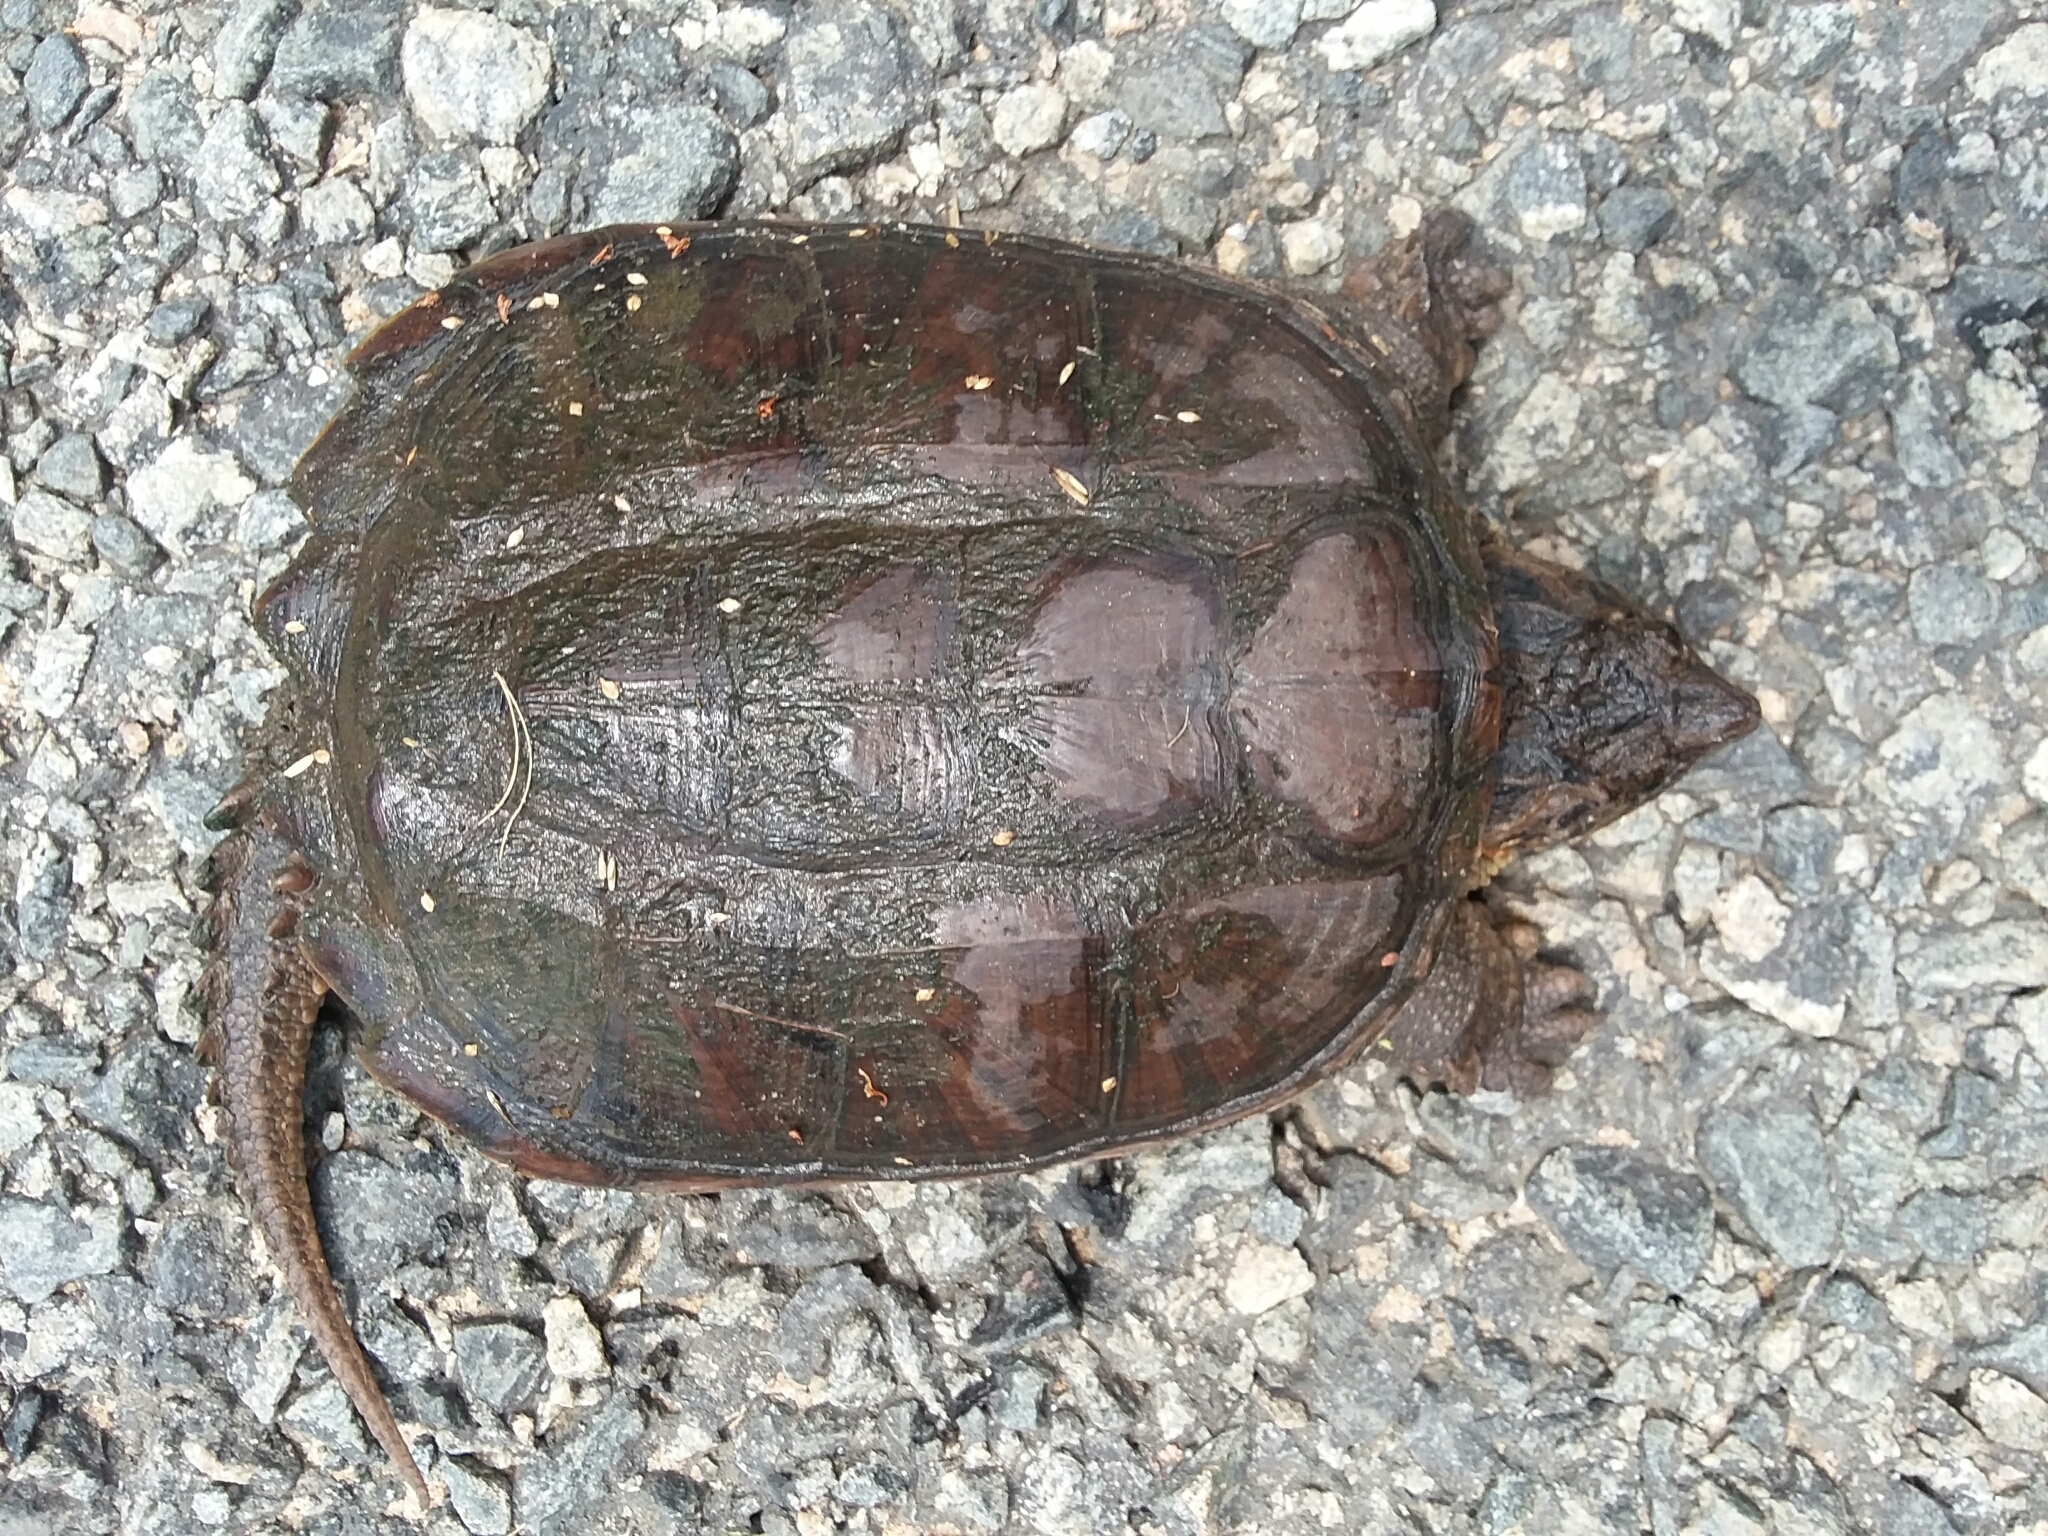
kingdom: Animalia
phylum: Chordata
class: Testudines
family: Chelydridae
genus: Chelydra
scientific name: Chelydra serpentina
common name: Common snapping turtle
